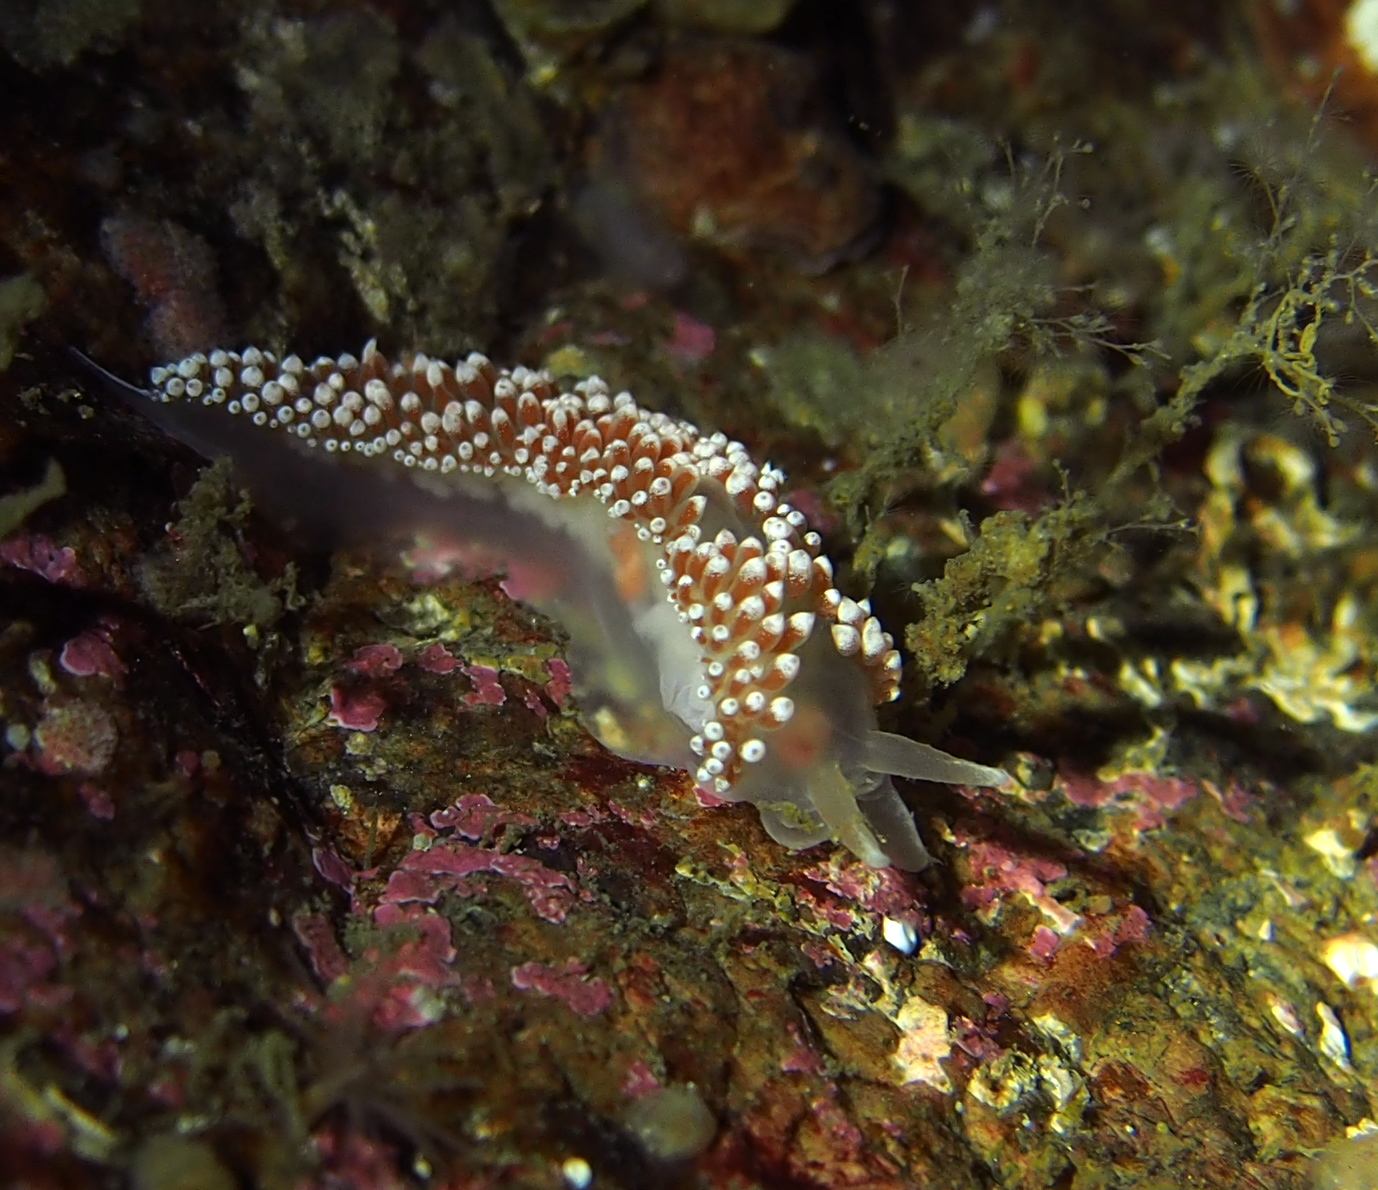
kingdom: Animalia
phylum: Mollusca
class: Gastropoda
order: Nudibranchia
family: Coryphellidae
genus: Coryphella
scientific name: Coryphella verrucosa
